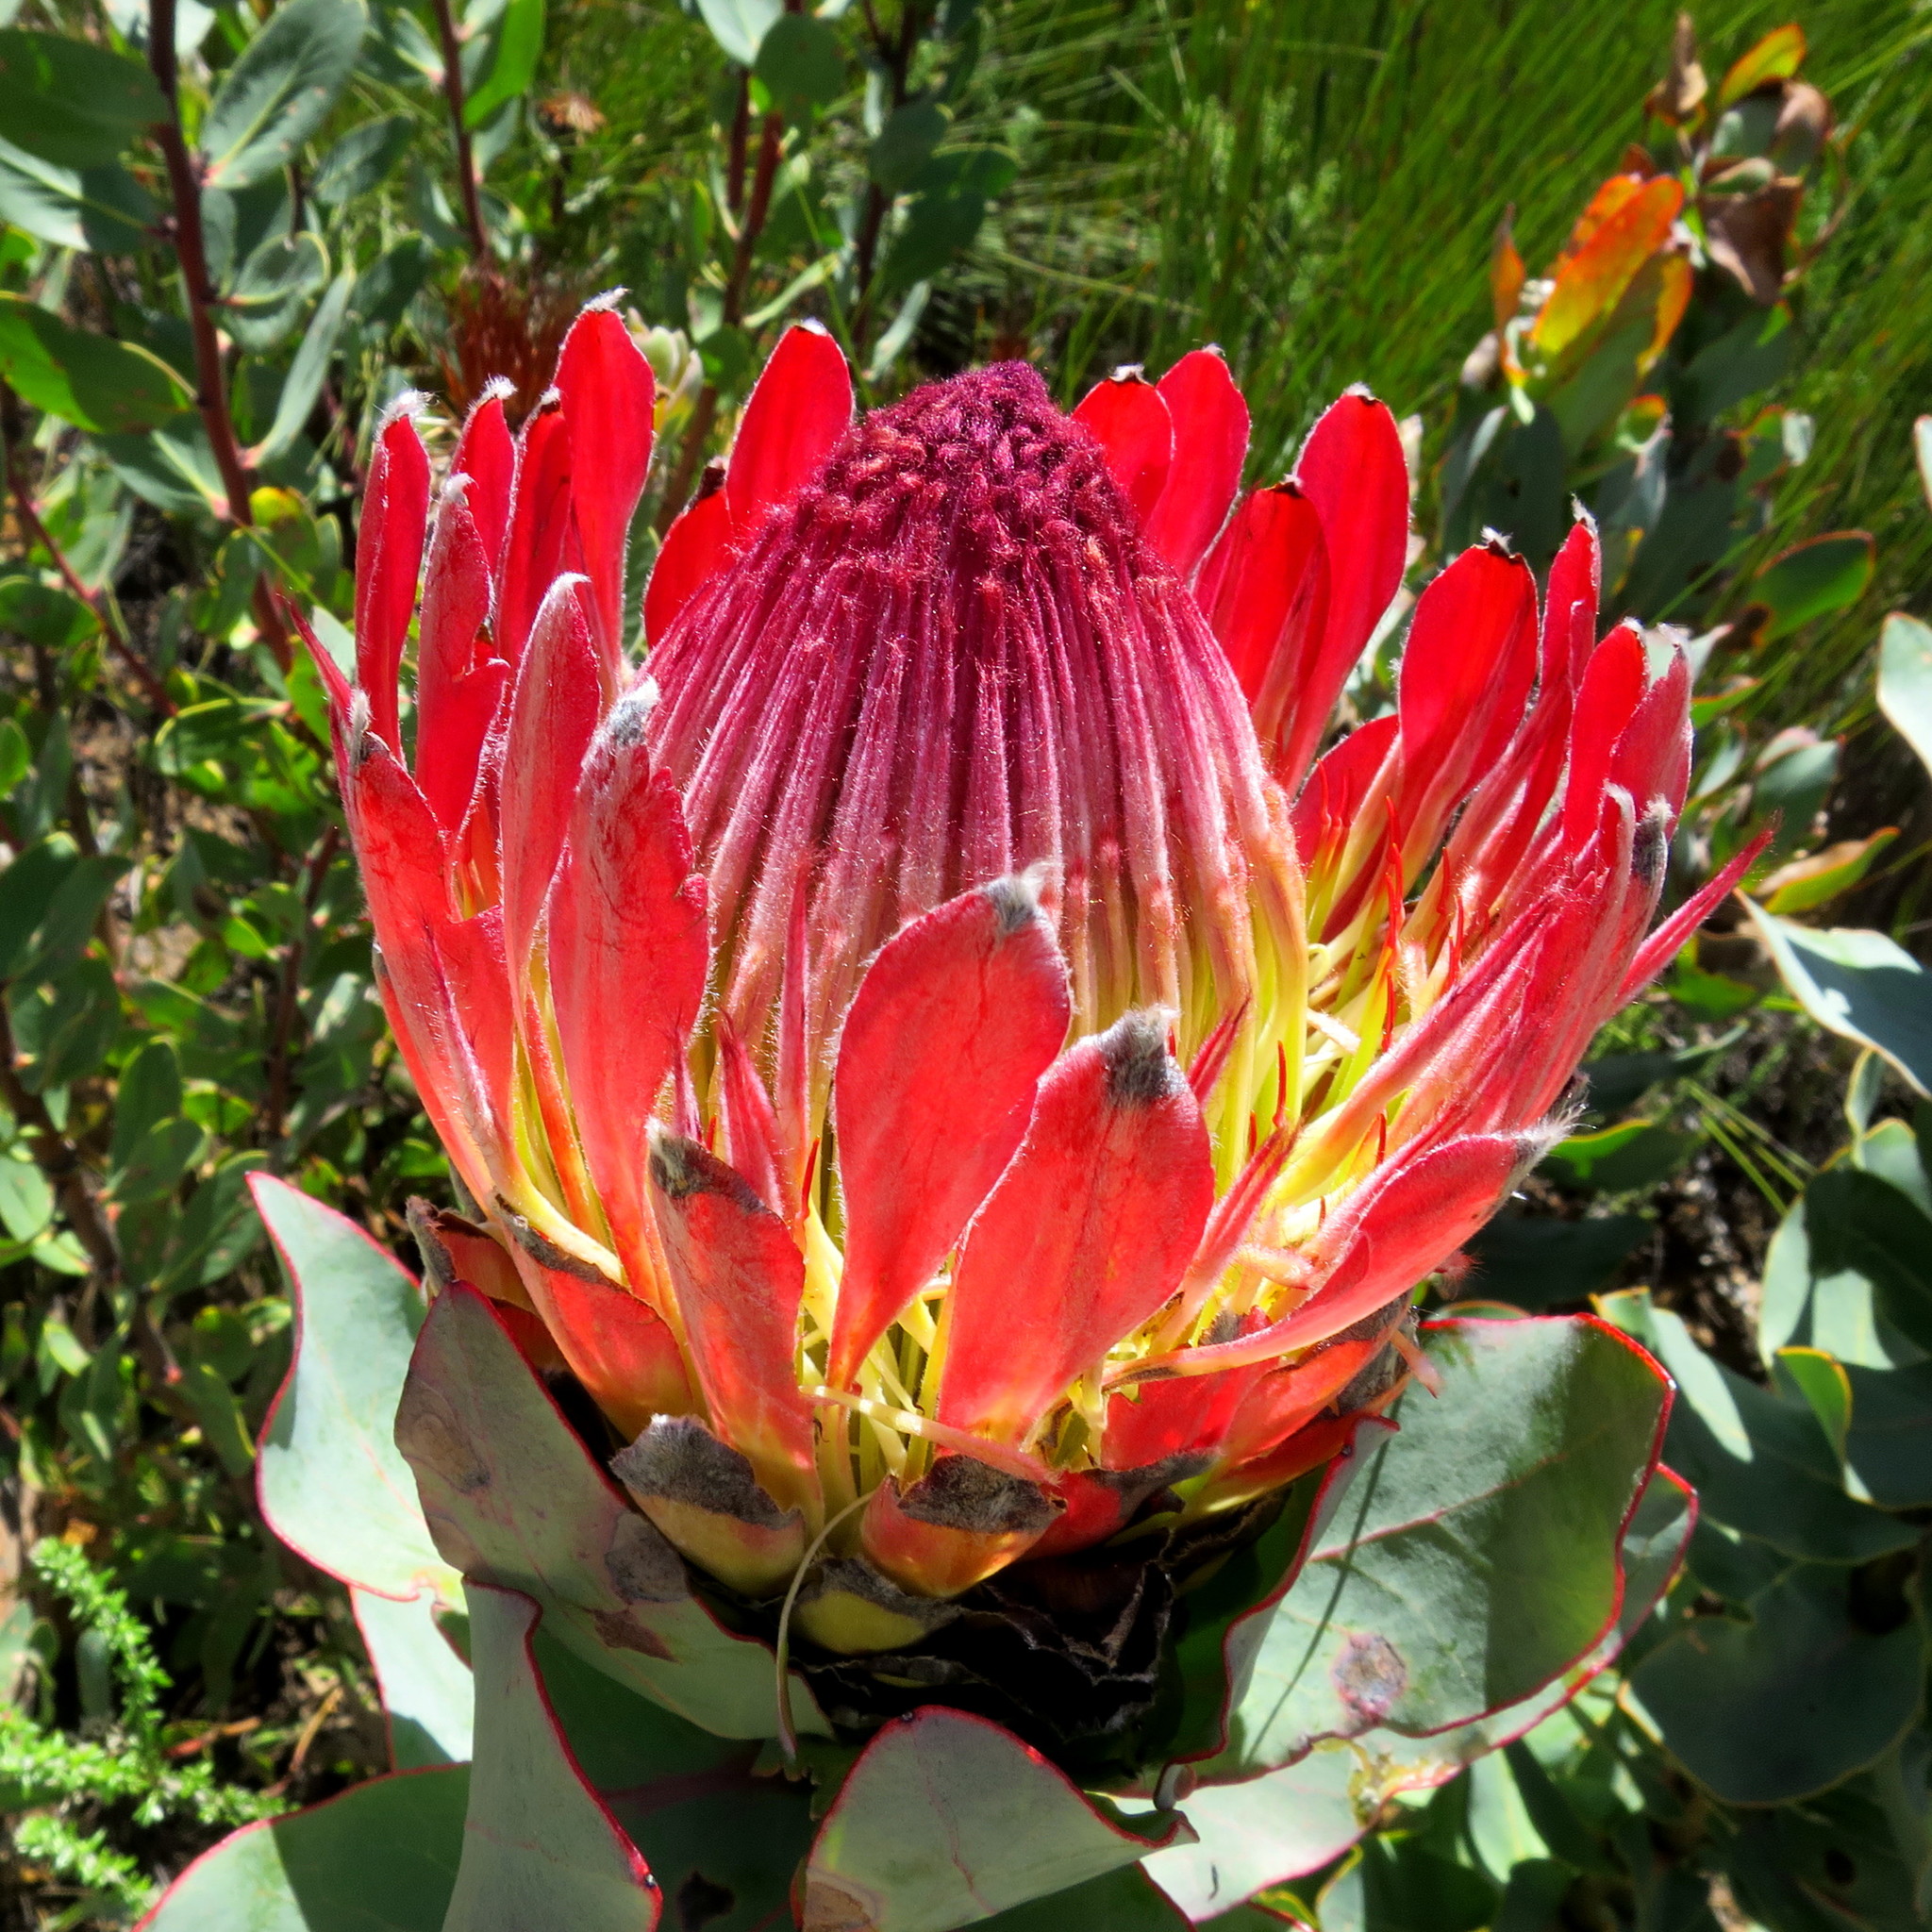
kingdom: Plantae
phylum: Tracheophyta
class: Magnoliopsida
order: Proteales
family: Proteaceae
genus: Protea
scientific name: Protea eximia
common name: Broad-leaved sugarbush
